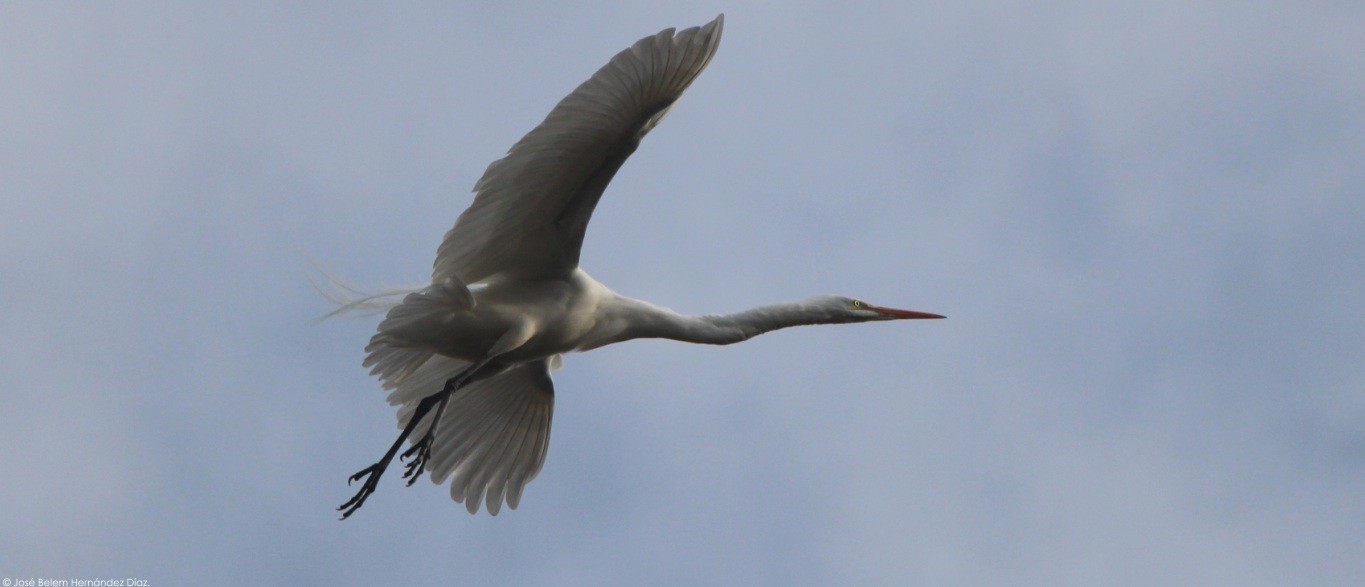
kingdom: Animalia
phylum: Chordata
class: Aves
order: Pelecaniformes
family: Ardeidae
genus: Ardea
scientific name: Ardea alba
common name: Great egret
